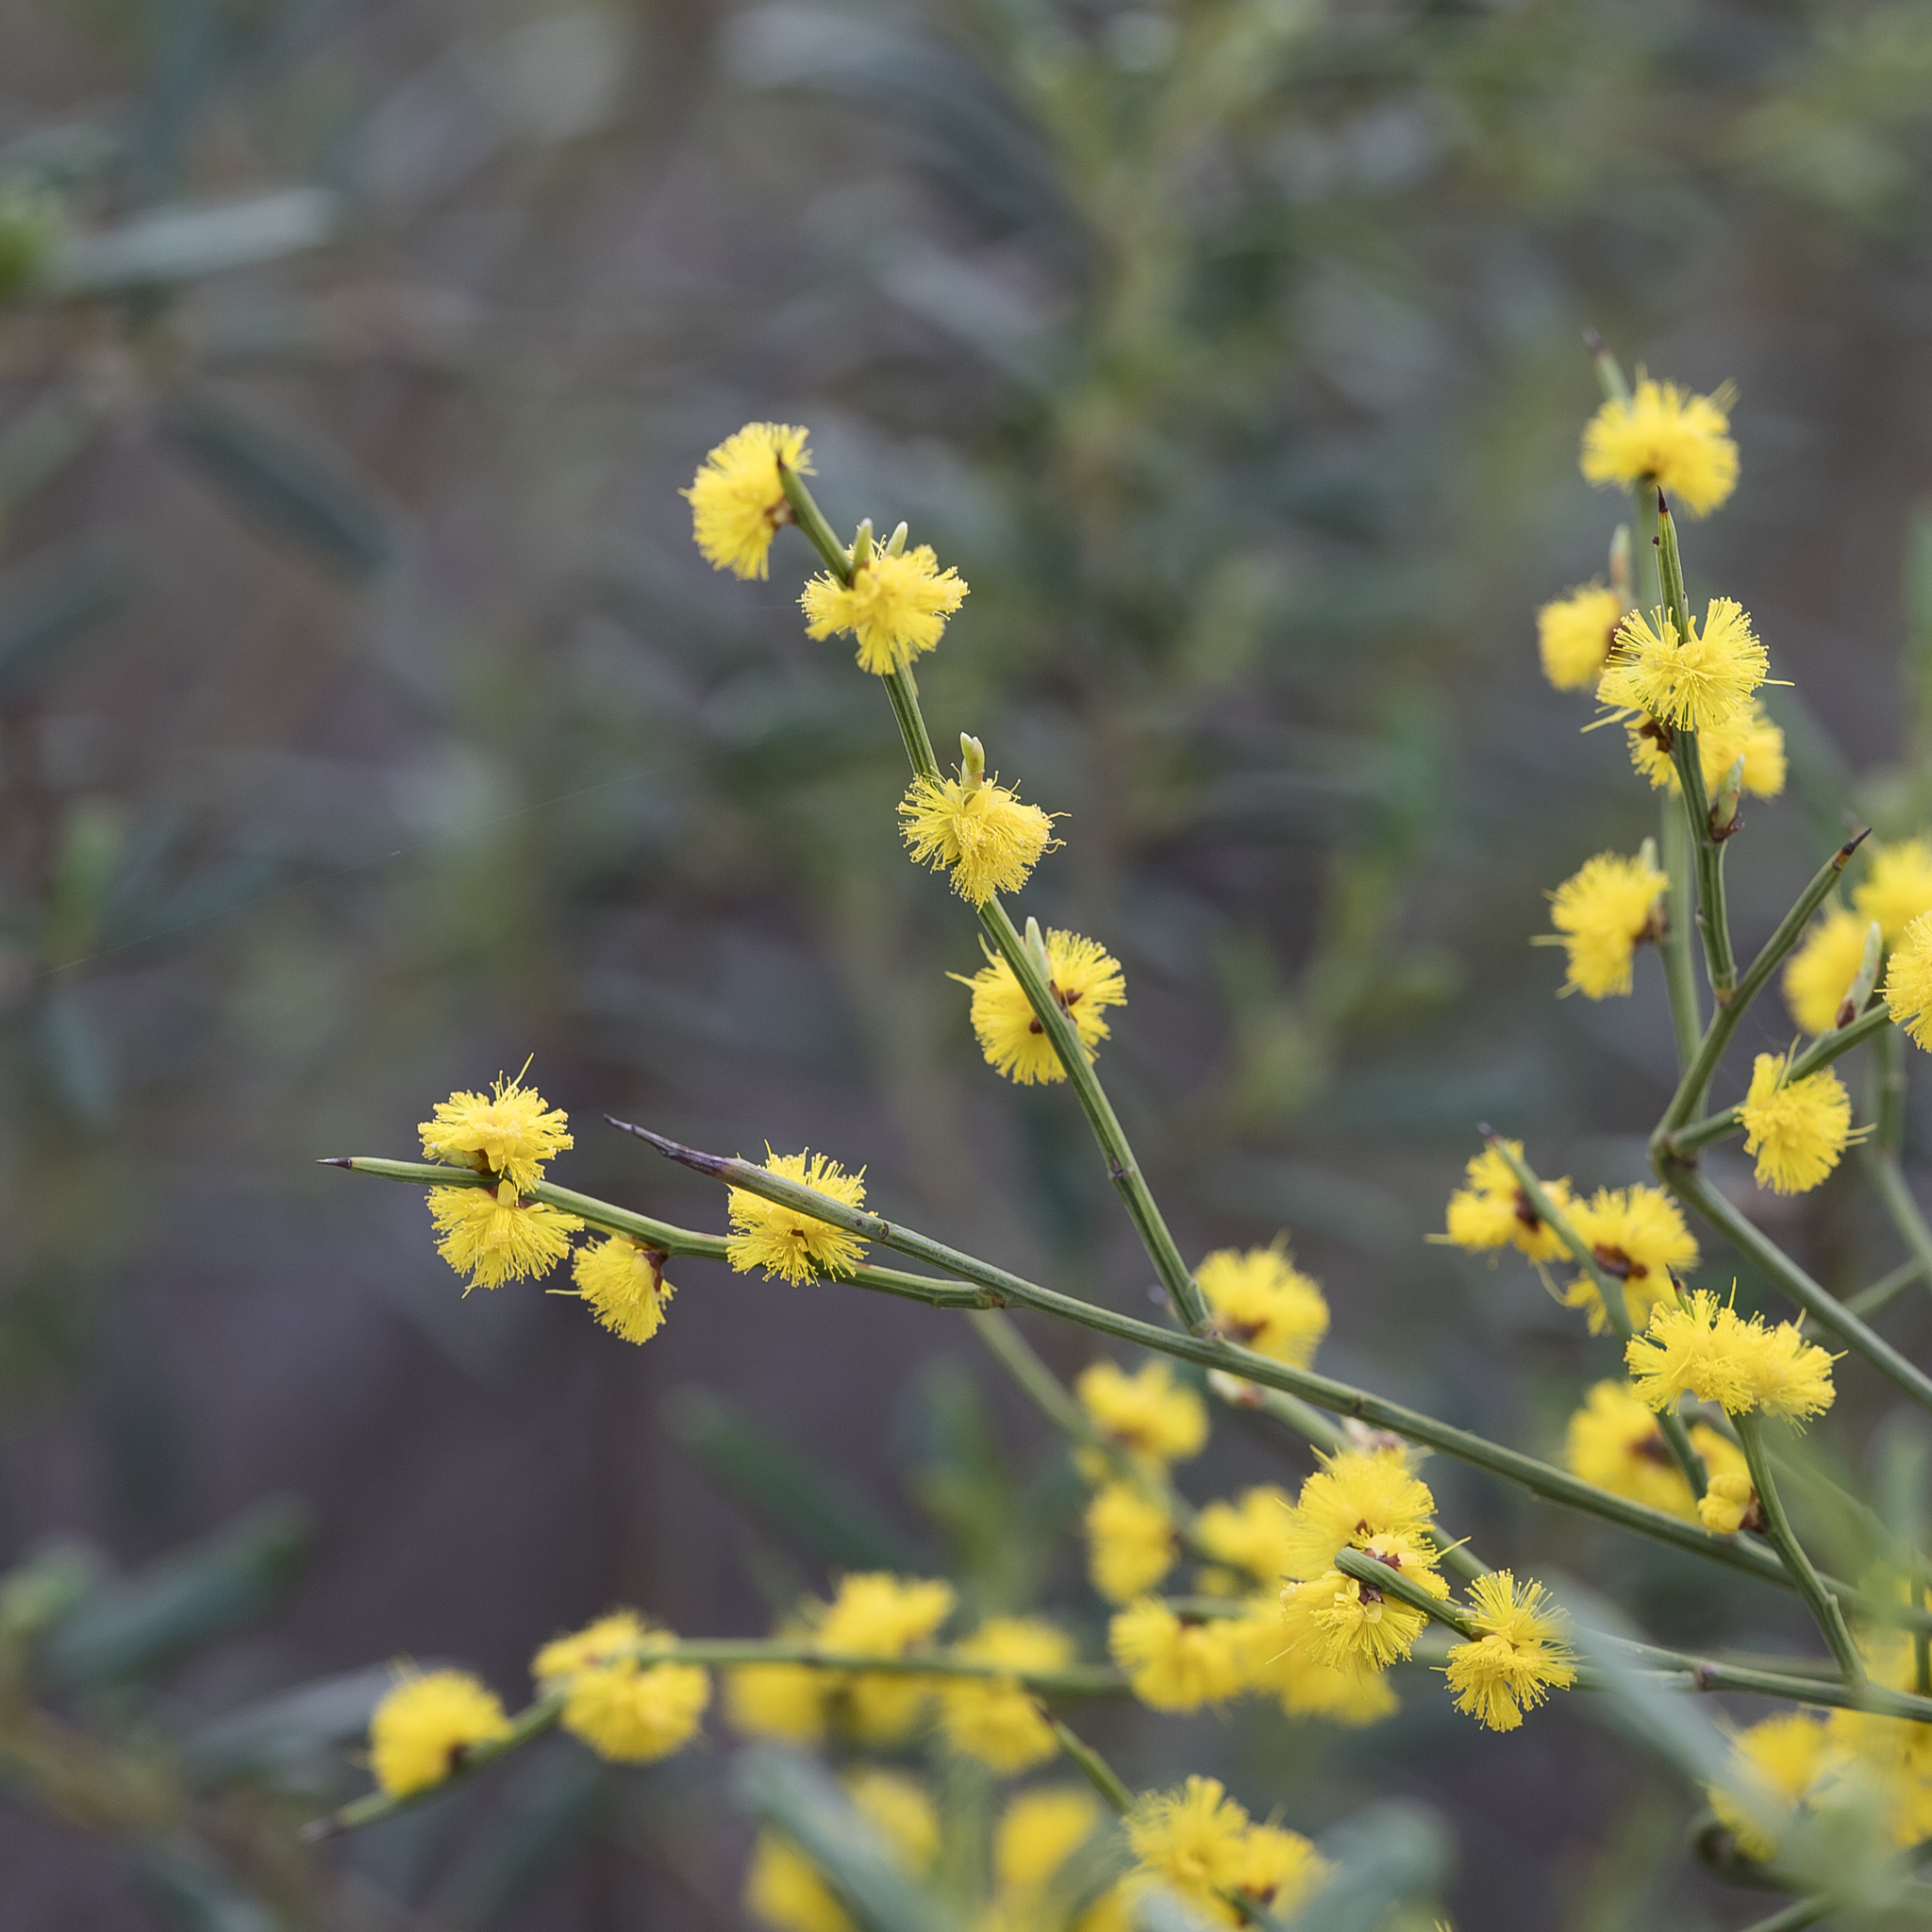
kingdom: Plantae
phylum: Tracheophyta
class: Magnoliopsida
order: Fabales
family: Fabaceae
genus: Acacia
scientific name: Acacia spinescens
